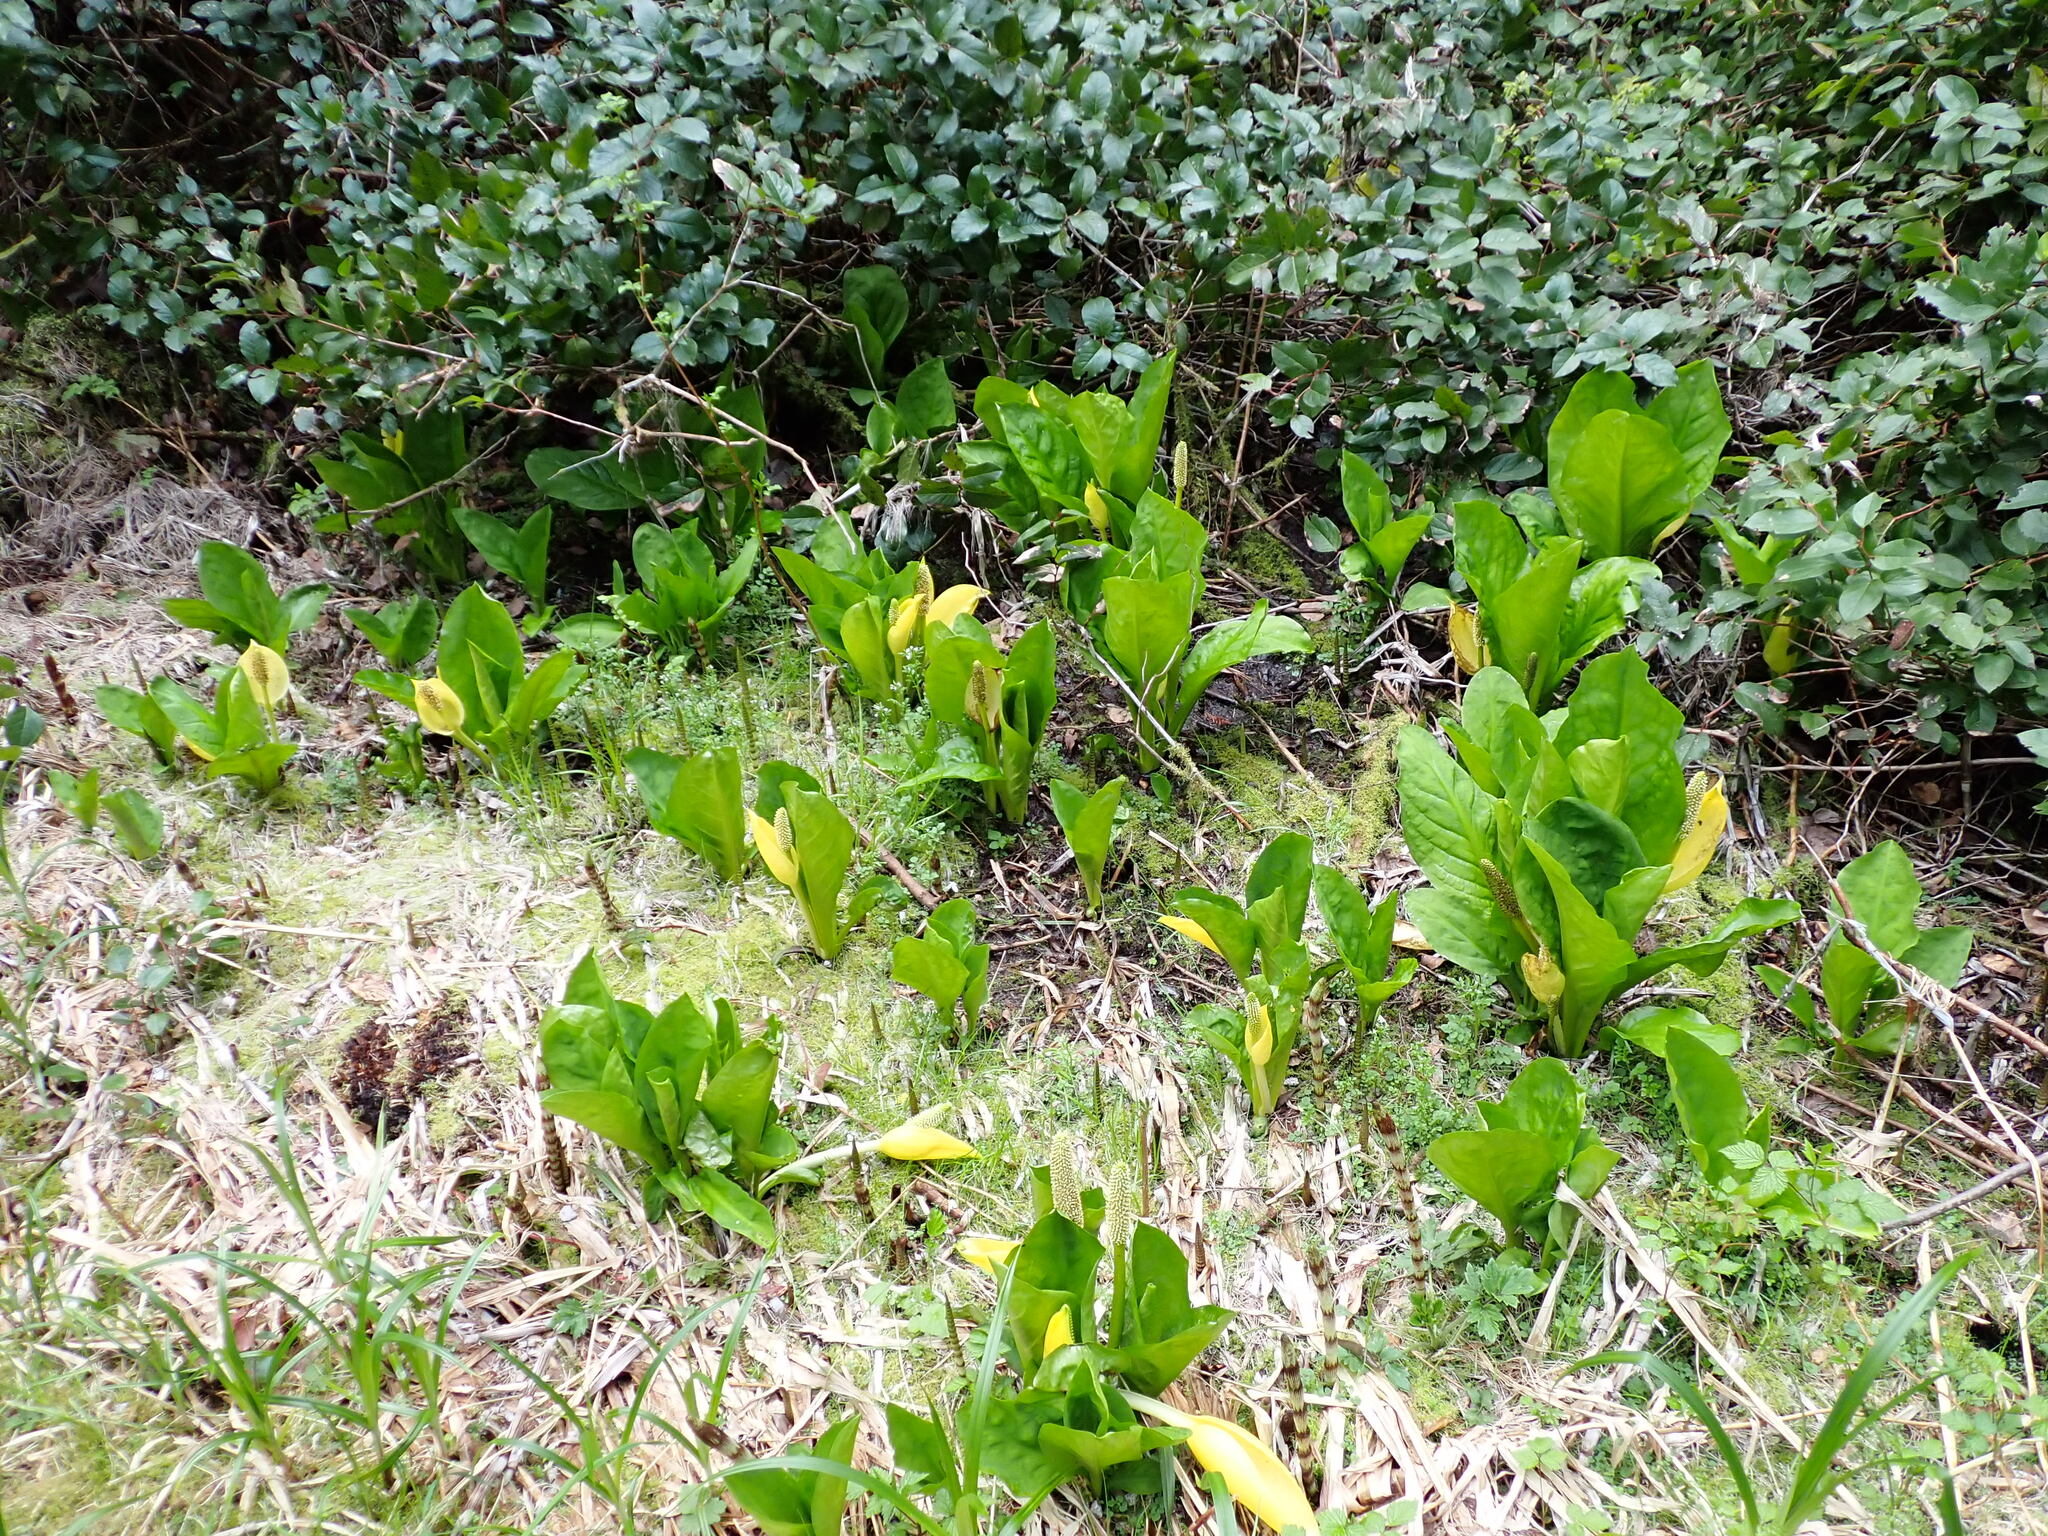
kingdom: Plantae
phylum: Tracheophyta
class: Liliopsida
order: Alismatales
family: Araceae
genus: Lysichiton
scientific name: Lysichiton americanus
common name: American skunk cabbage
